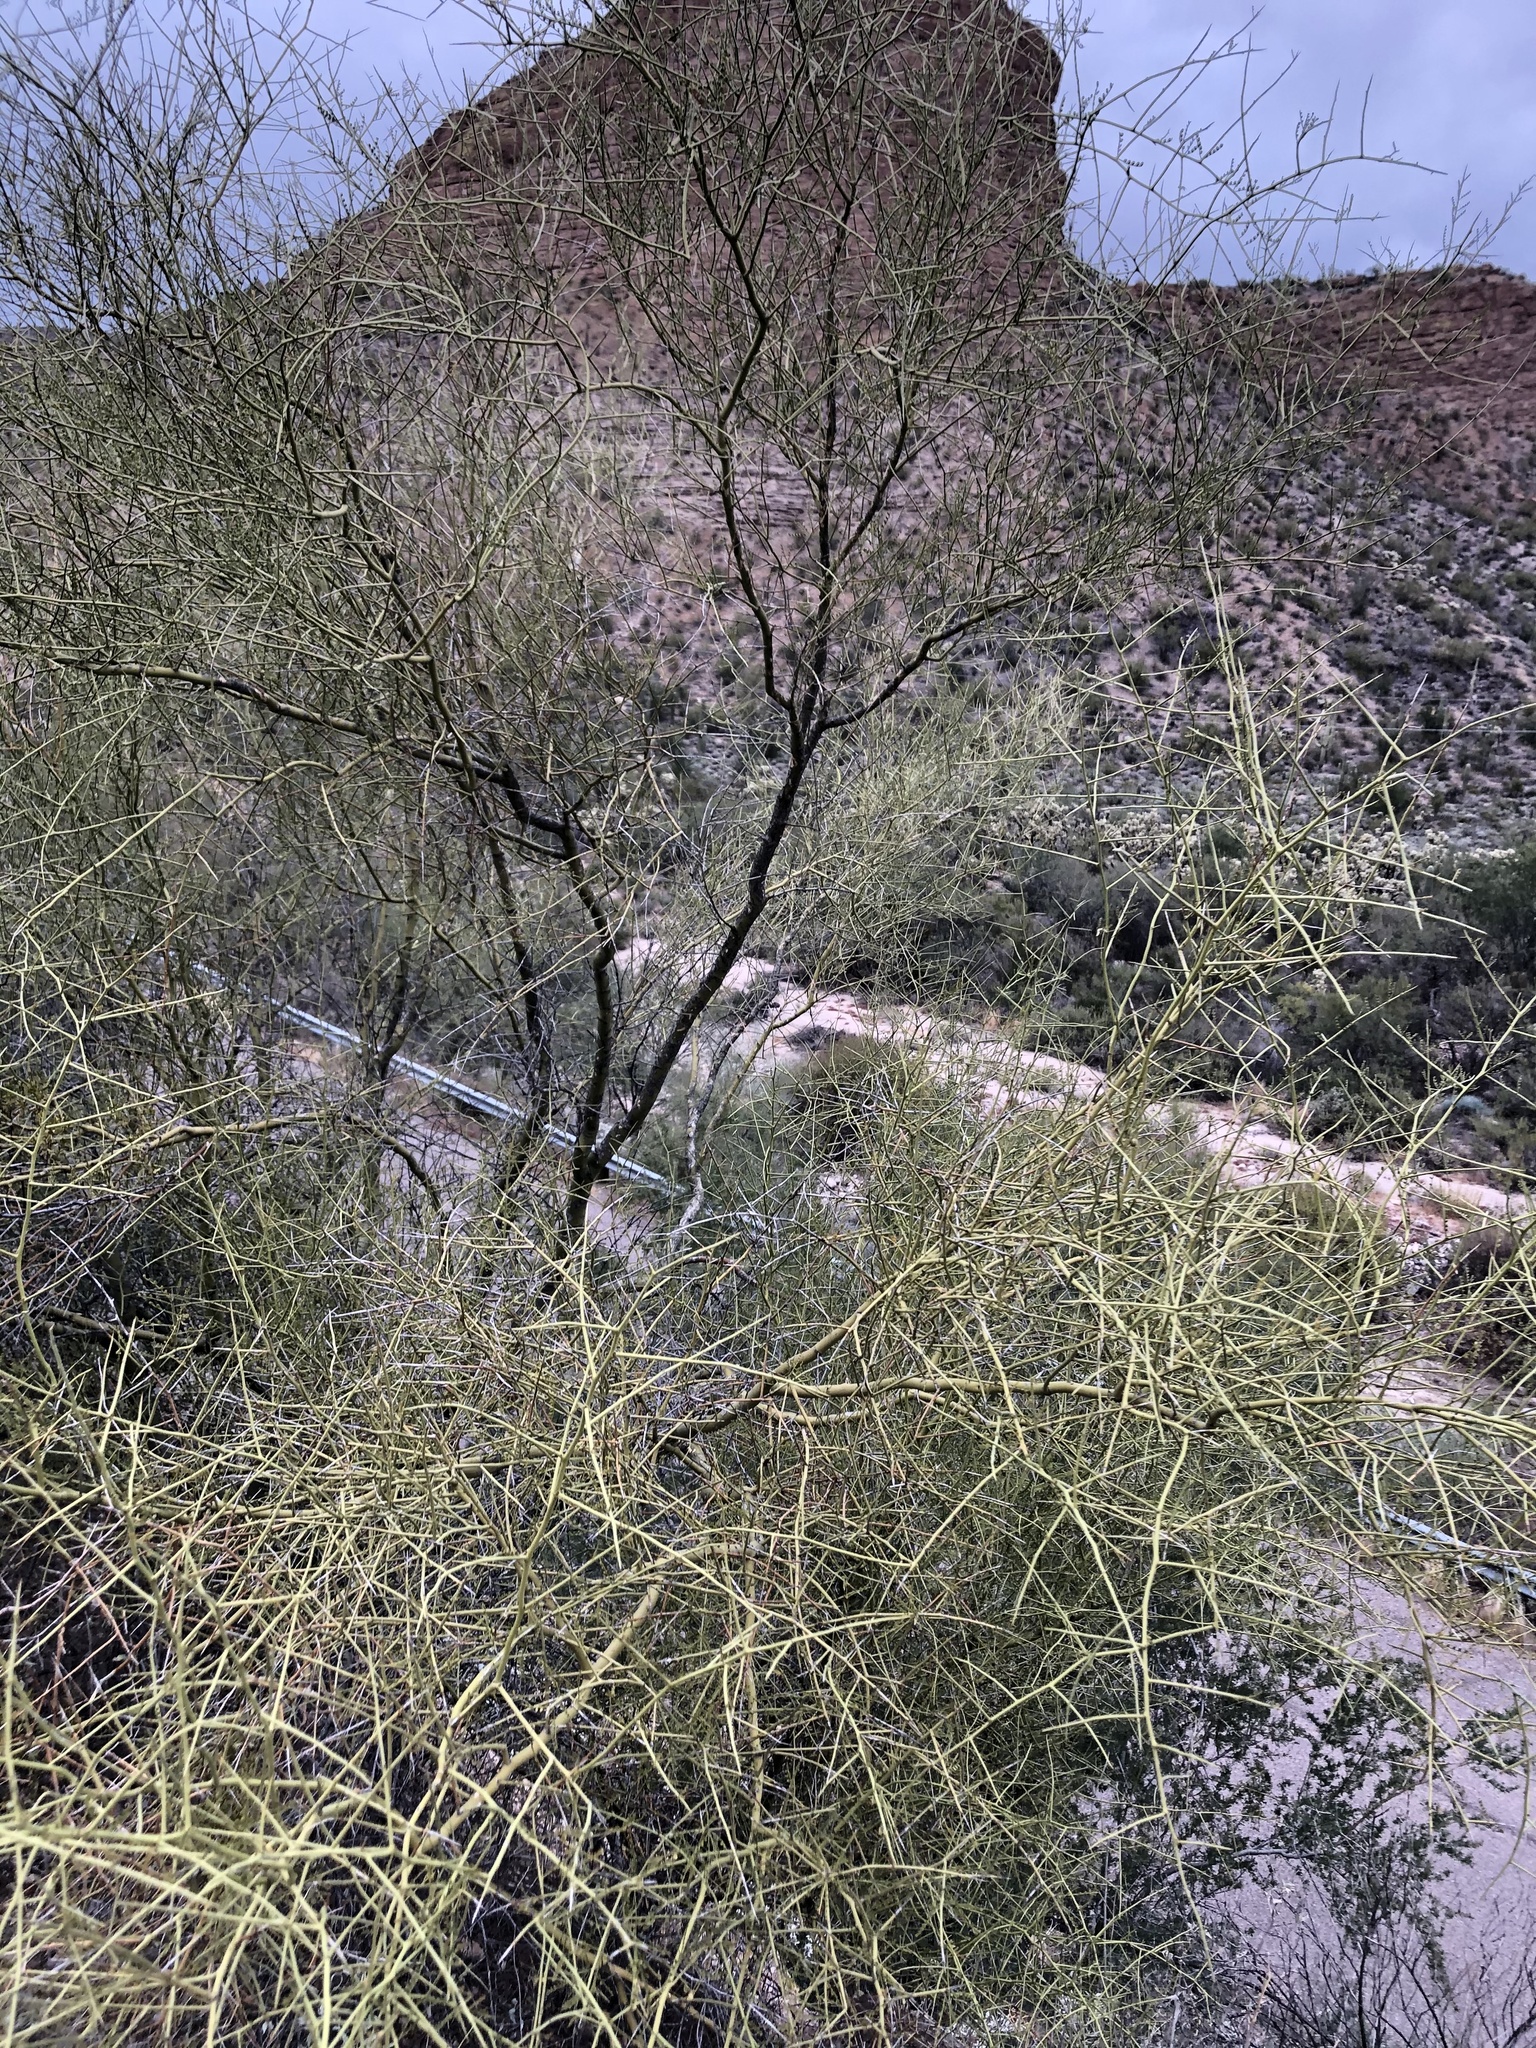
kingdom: Plantae
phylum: Tracheophyta
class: Magnoliopsida
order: Fabales
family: Fabaceae
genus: Parkinsonia
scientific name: Parkinsonia microphylla
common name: Yellow paloverde
